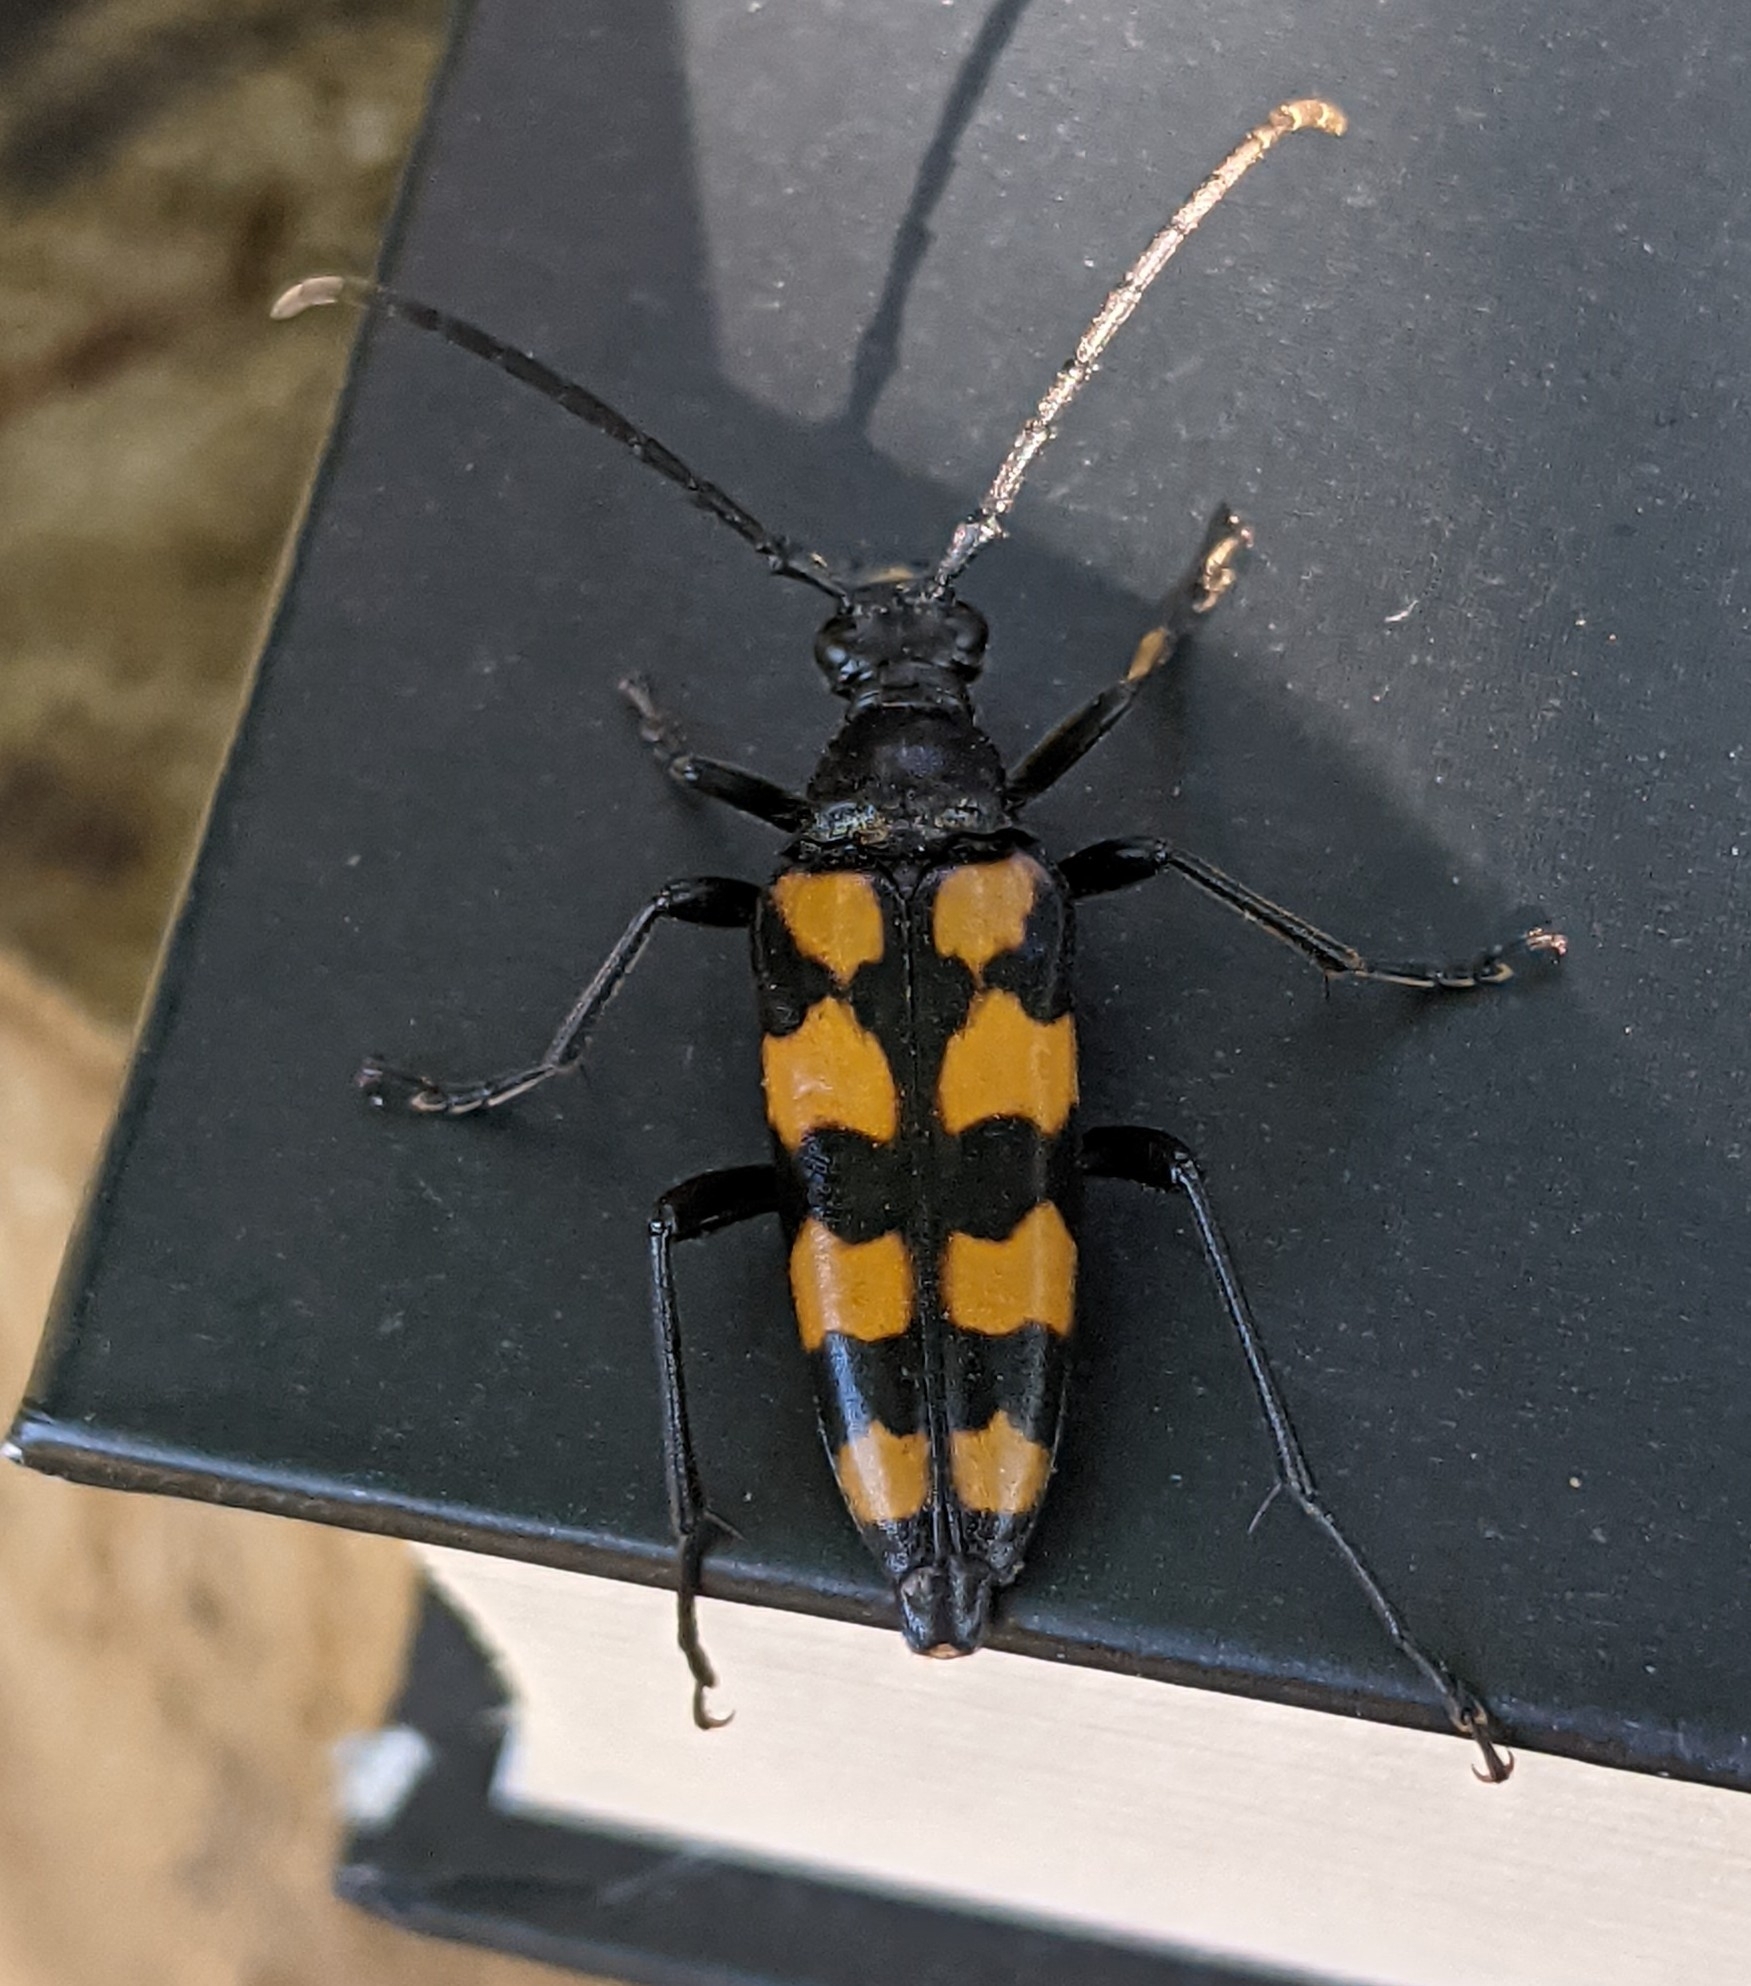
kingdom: Animalia
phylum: Arthropoda
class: Insecta
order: Coleoptera
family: Cerambycidae
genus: Leptura
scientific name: Leptura quadrifasciata
